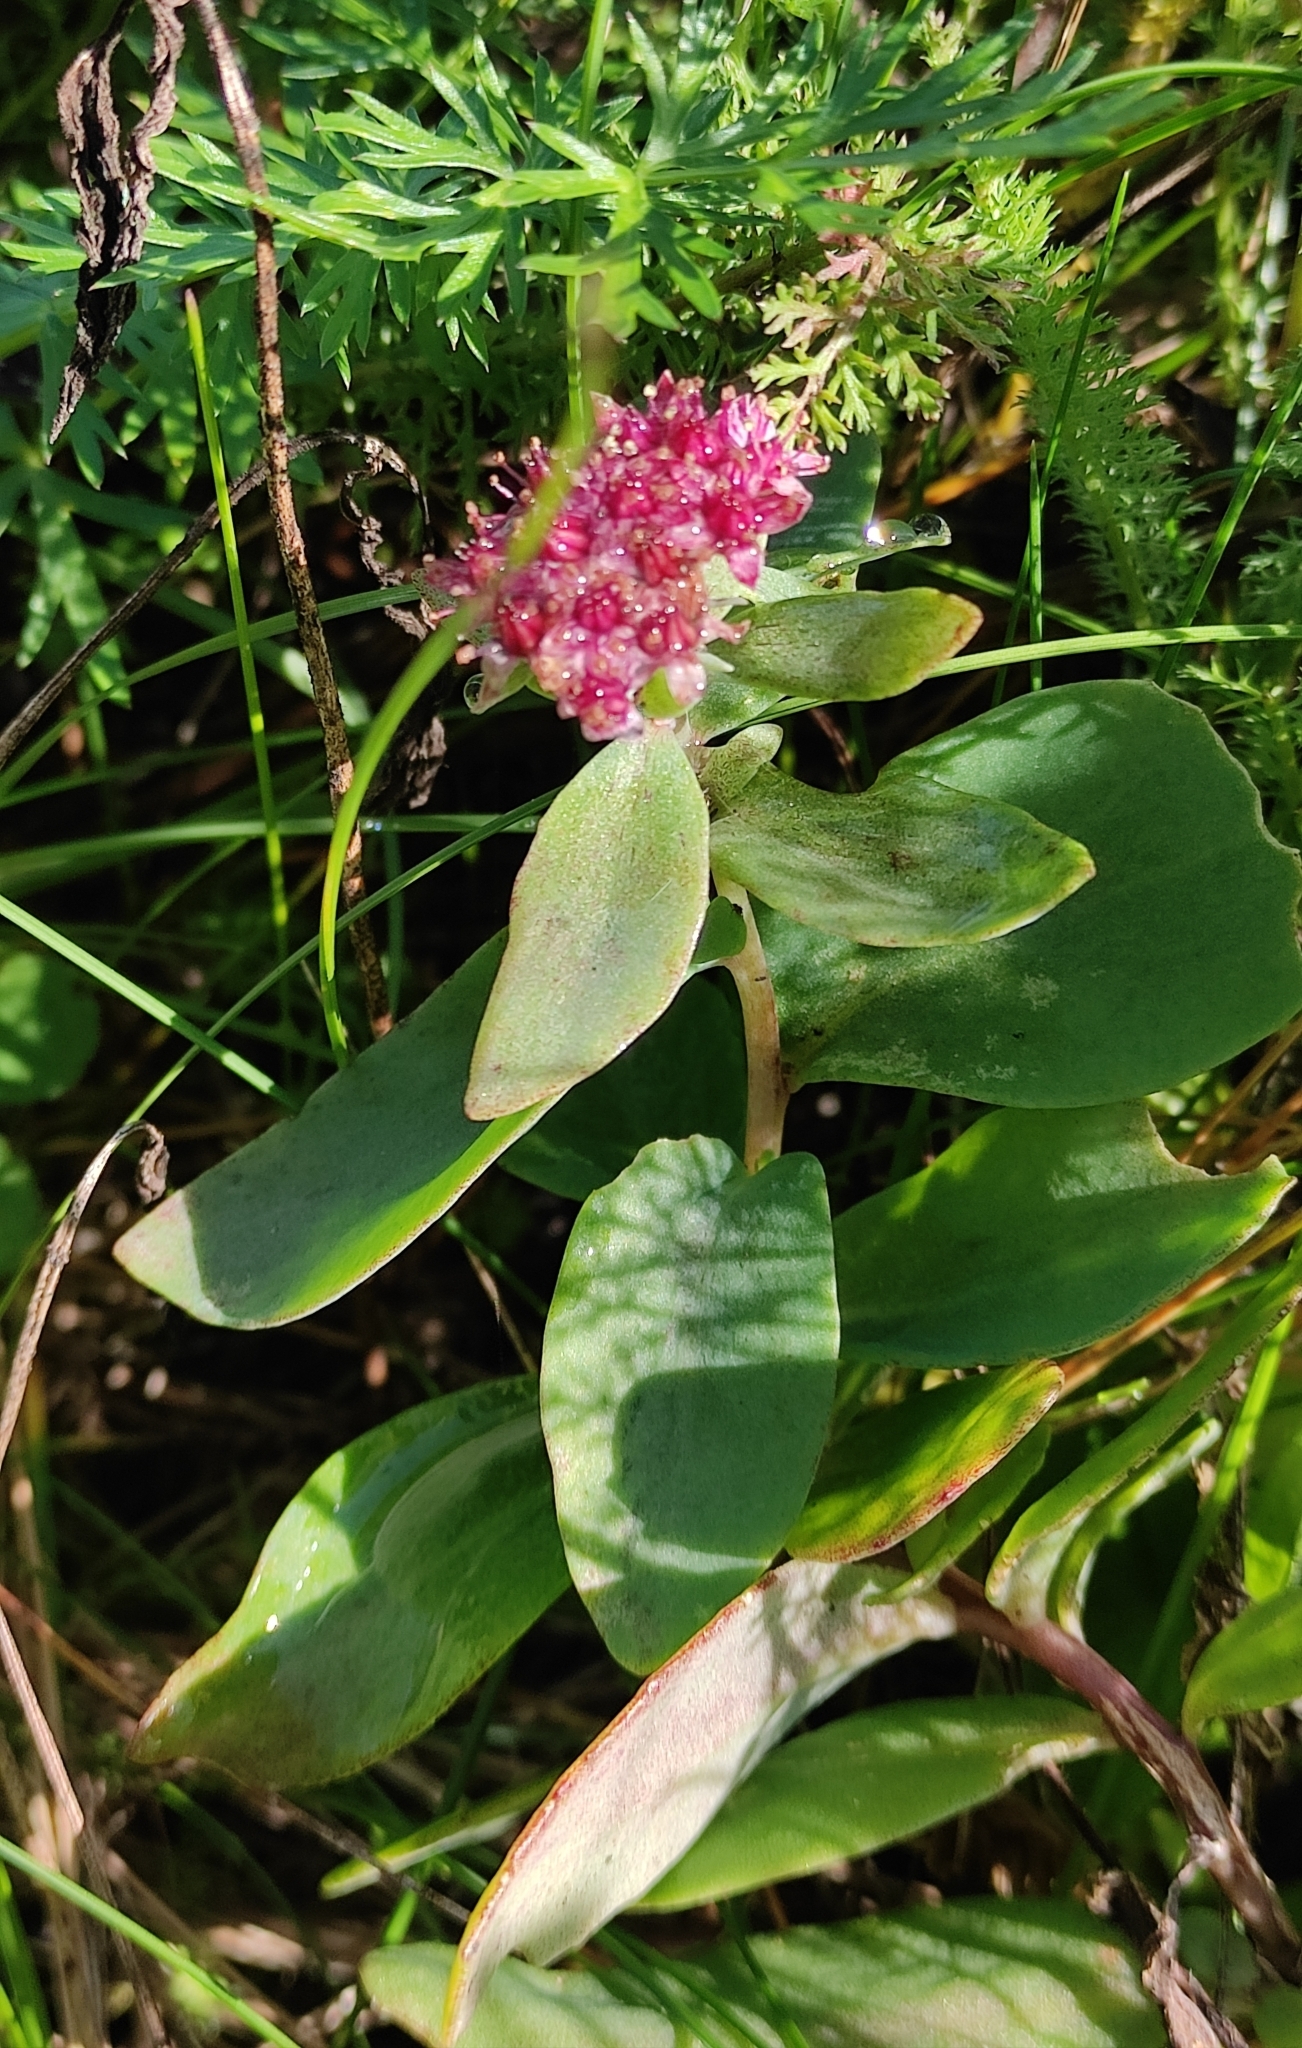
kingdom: Plantae
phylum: Tracheophyta
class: Magnoliopsida
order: Saxifragales
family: Crassulaceae
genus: Hylotelephium
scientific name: Hylotelephium telephium
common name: Live-forever
